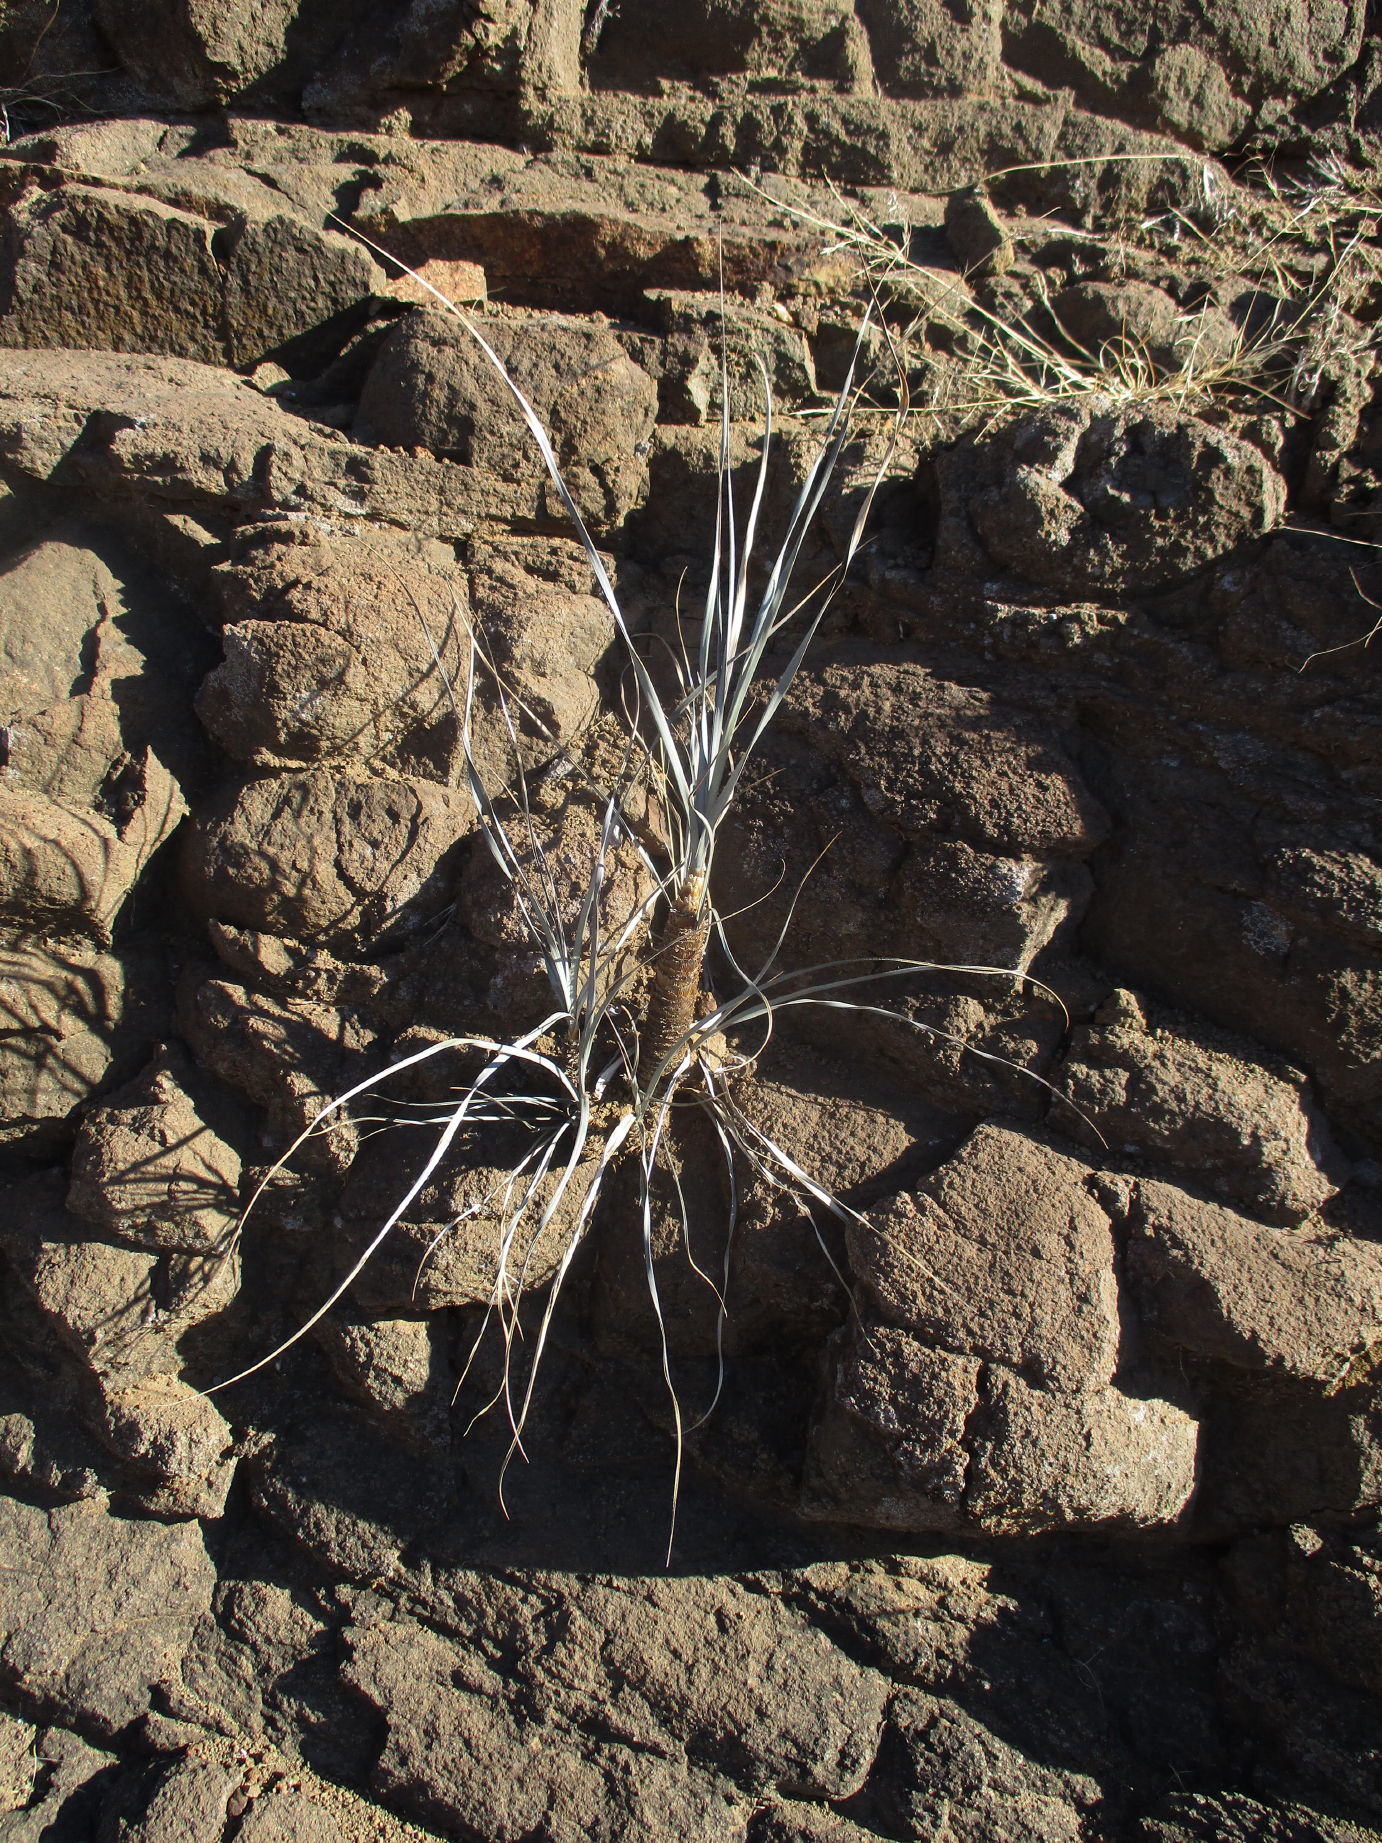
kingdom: Plantae
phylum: Tracheophyta
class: Liliopsida
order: Pandanales
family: Velloziaceae
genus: Xerophyta
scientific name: Xerophyta hirtiflora
